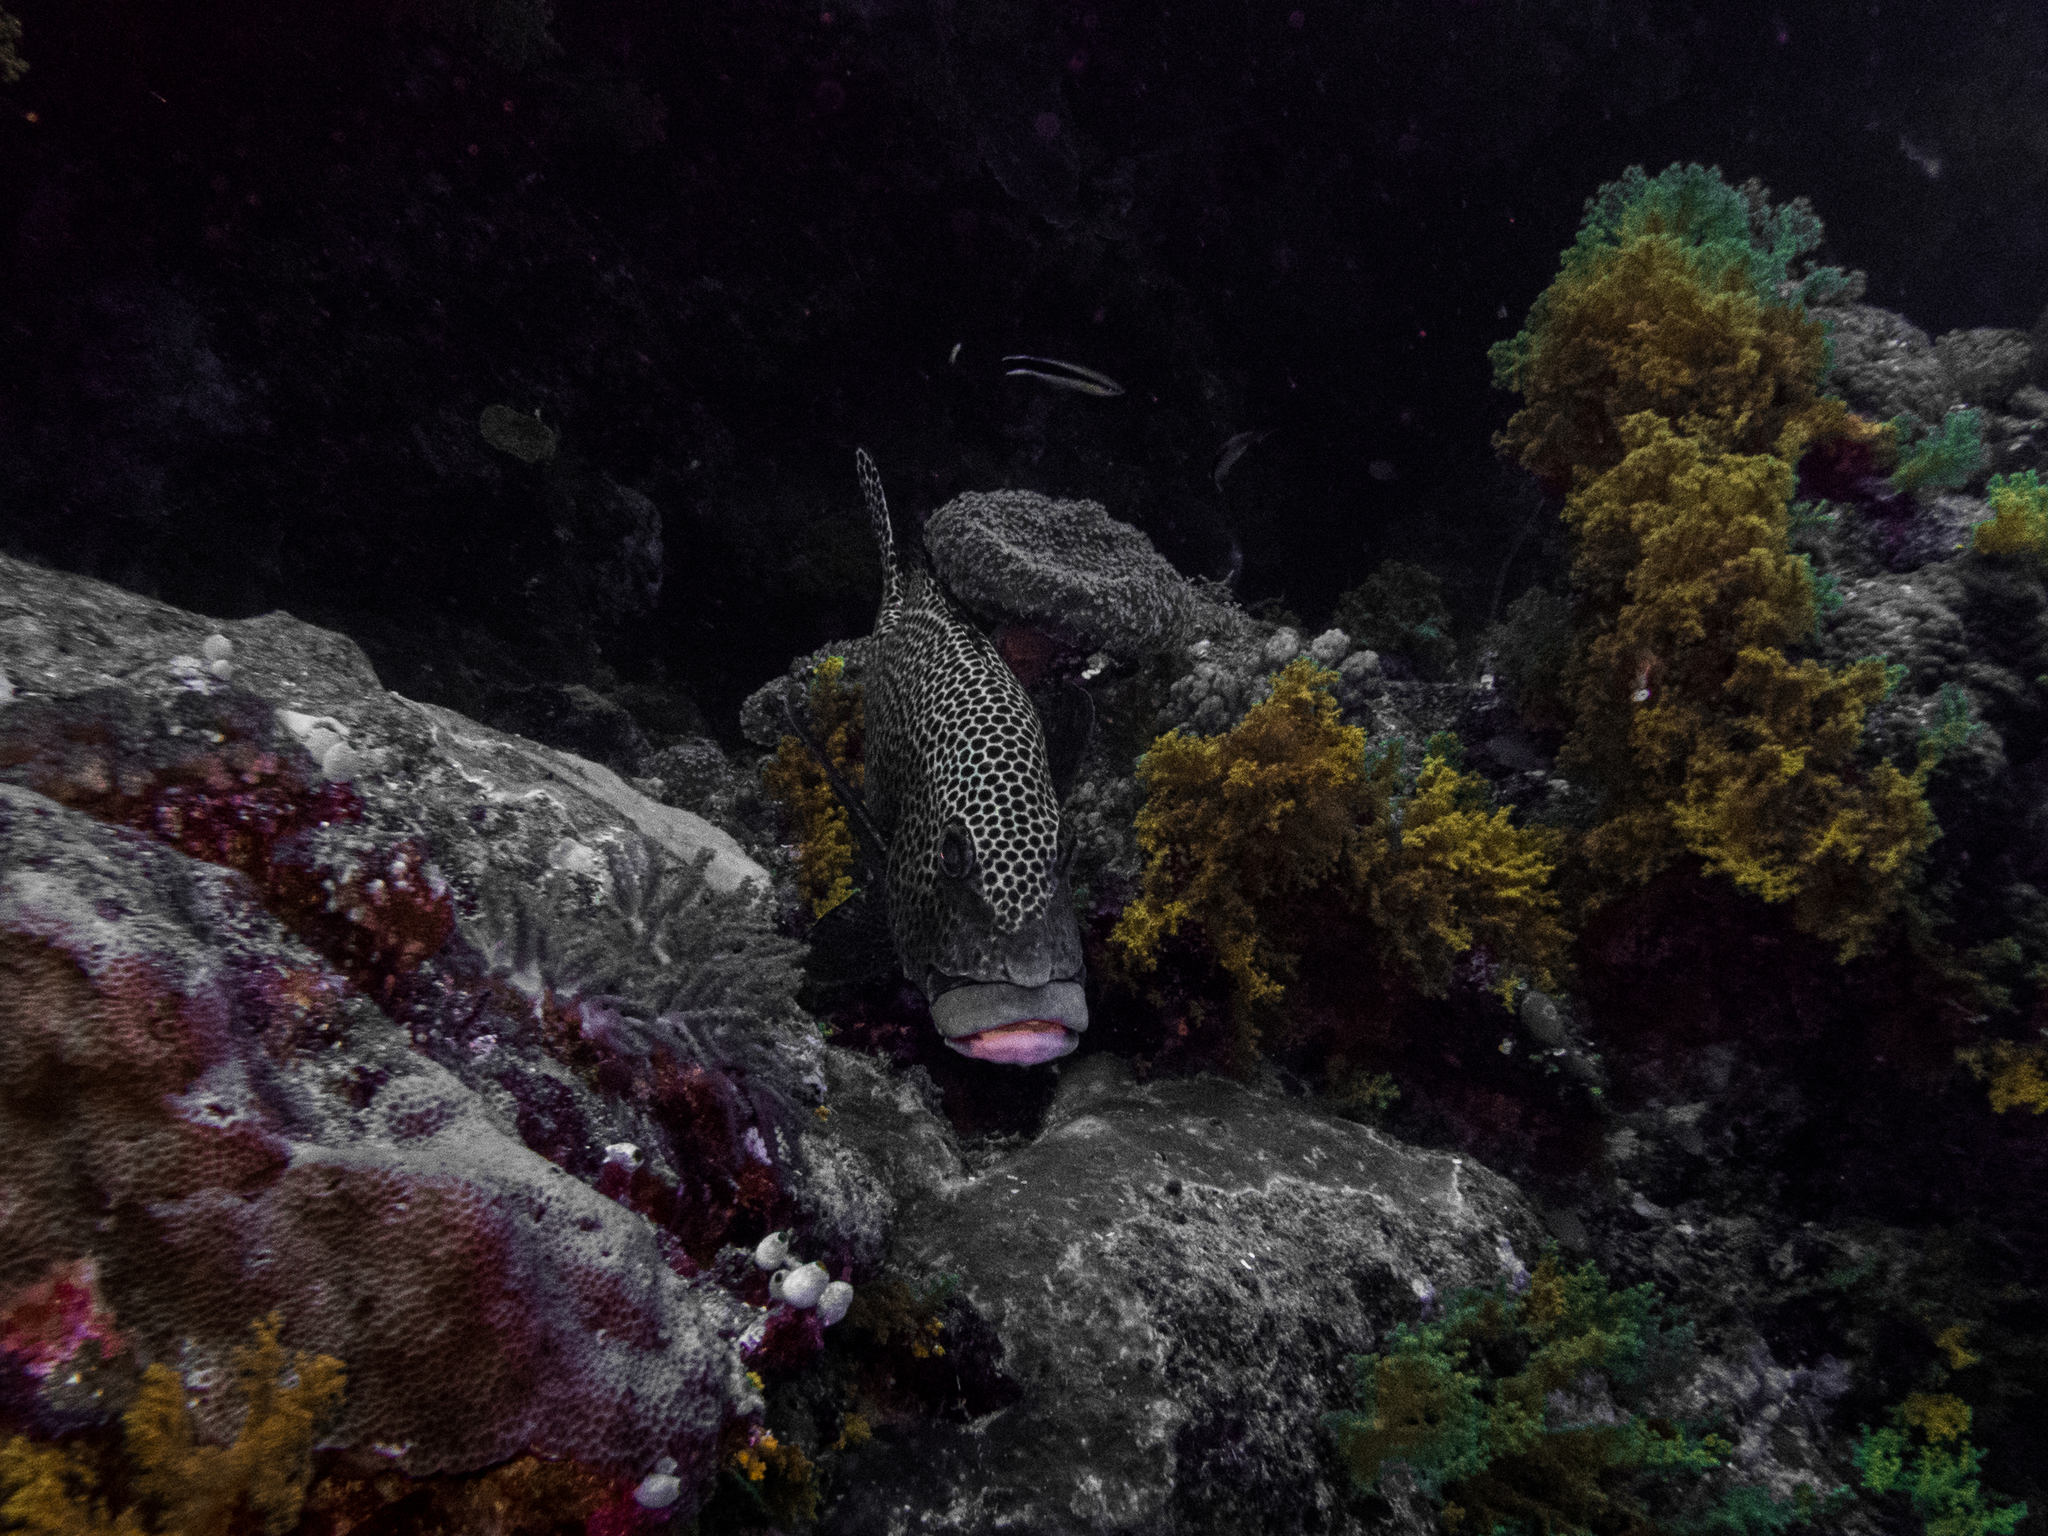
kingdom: Animalia
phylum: Chordata
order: Perciformes
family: Haemulidae
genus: Plectorhinchus
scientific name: Plectorhinchus chaetodonoides
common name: Harlequin sweetlips
